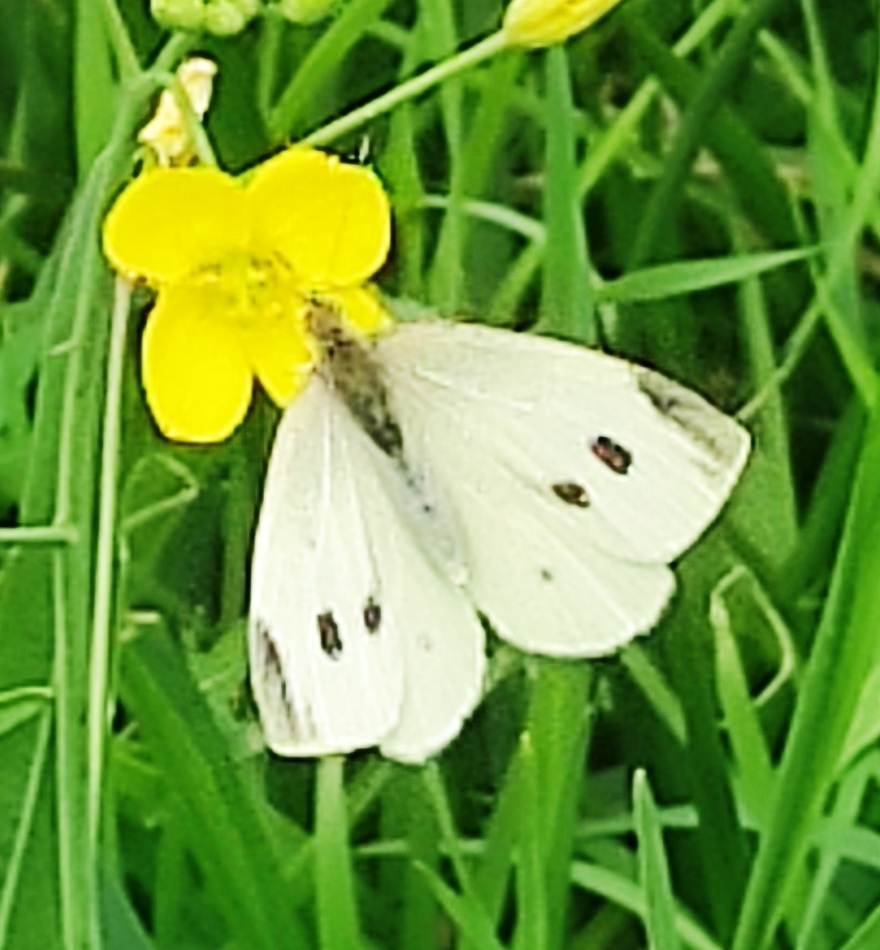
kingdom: Animalia
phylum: Arthropoda
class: Insecta
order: Lepidoptera
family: Pieridae
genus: Pieris
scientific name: Pieris rapae
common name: Small white
